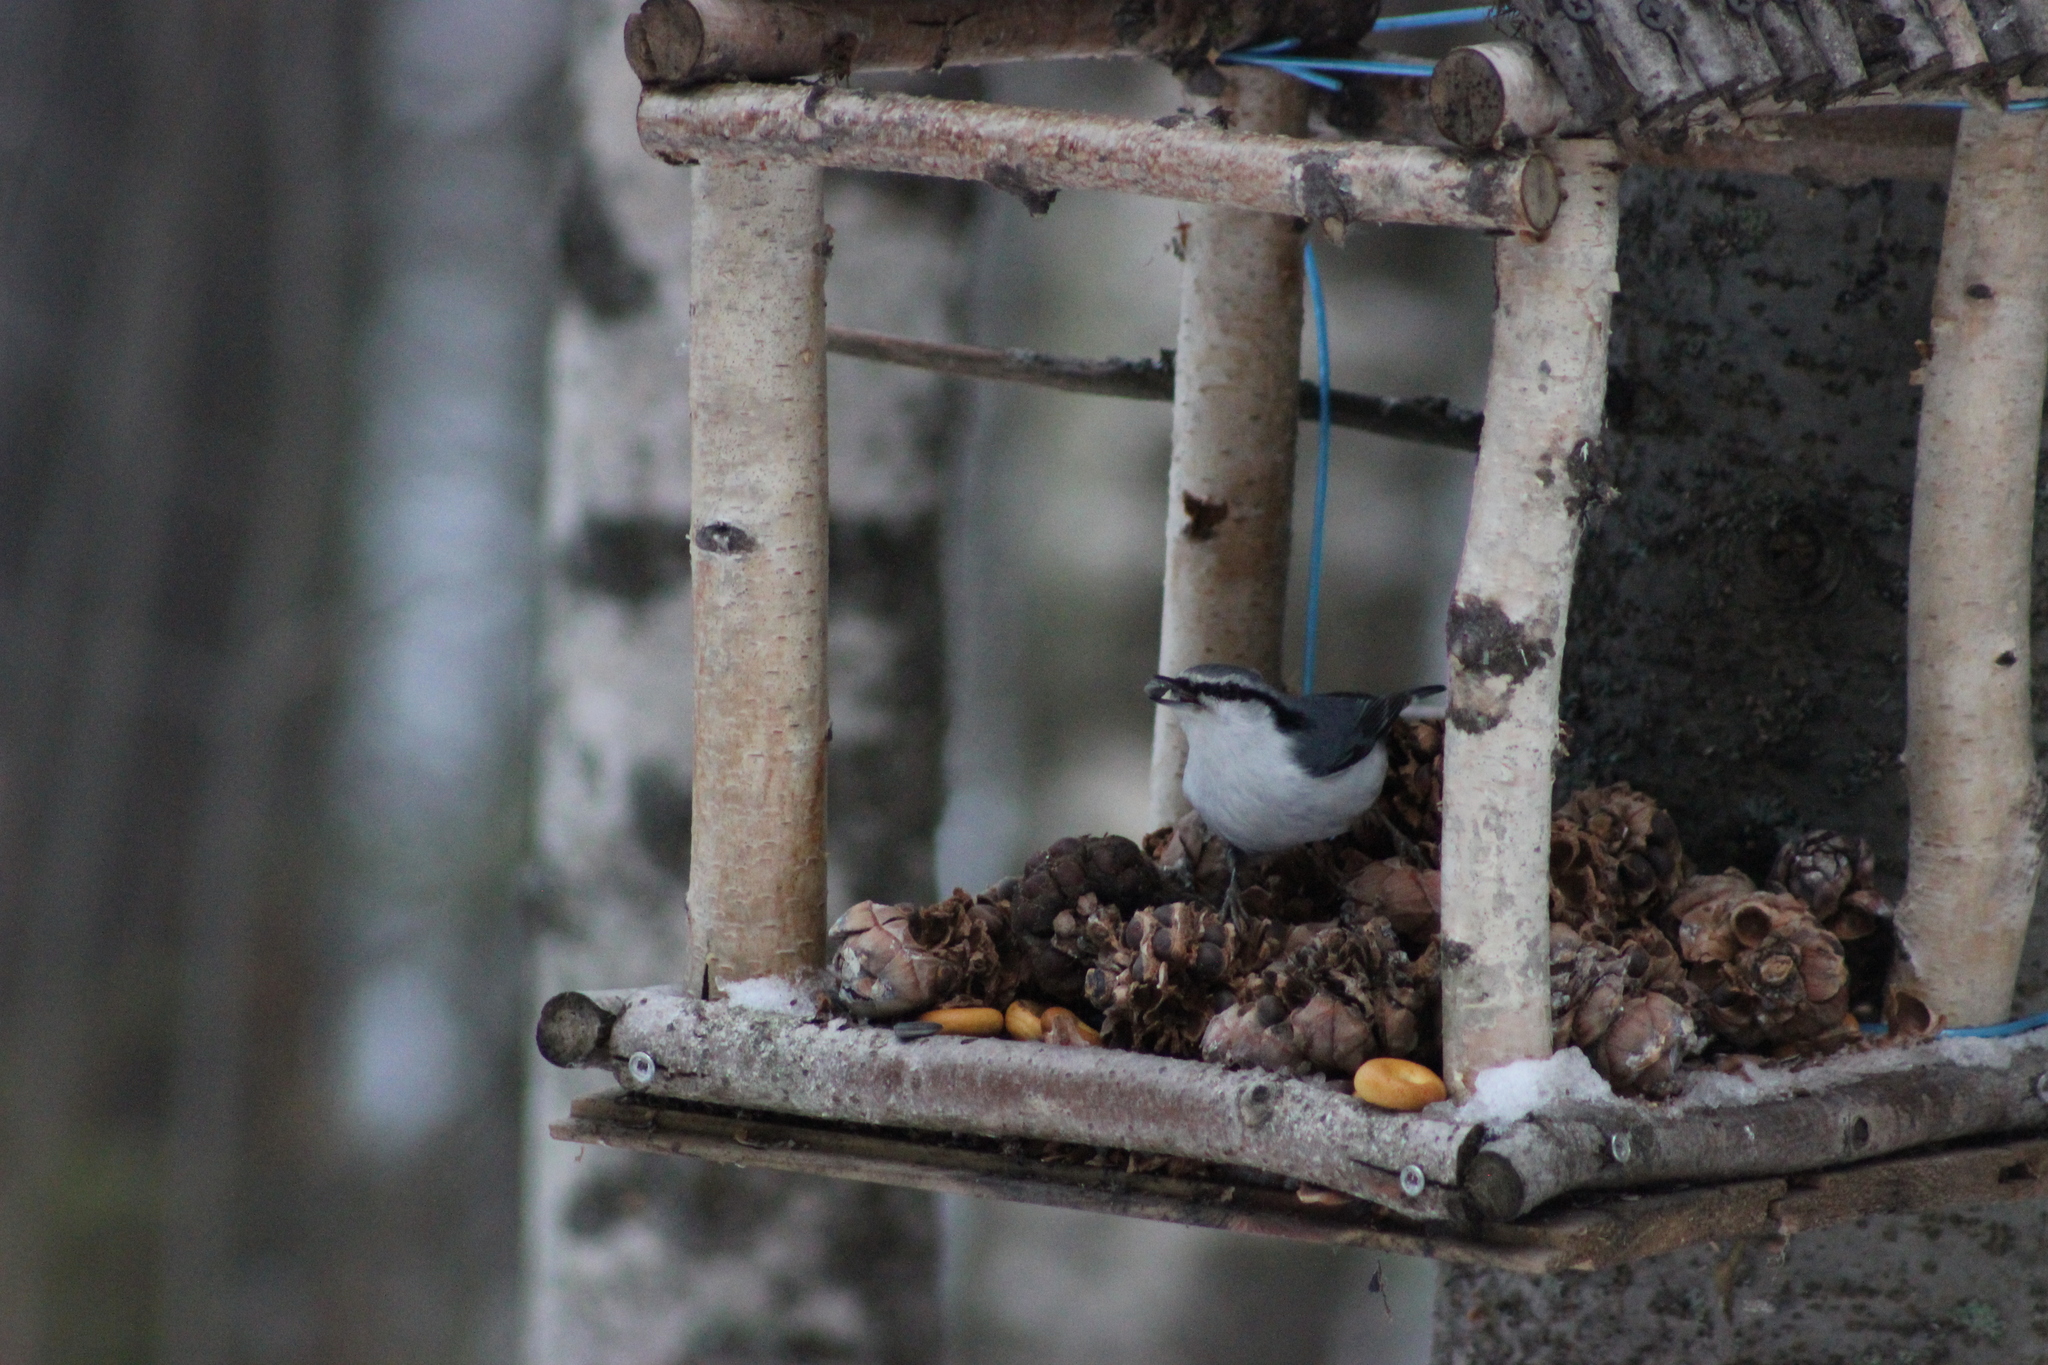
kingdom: Animalia
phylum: Chordata
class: Aves
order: Passeriformes
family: Sittidae
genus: Sitta
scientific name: Sitta europaea
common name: Eurasian nuthatch
